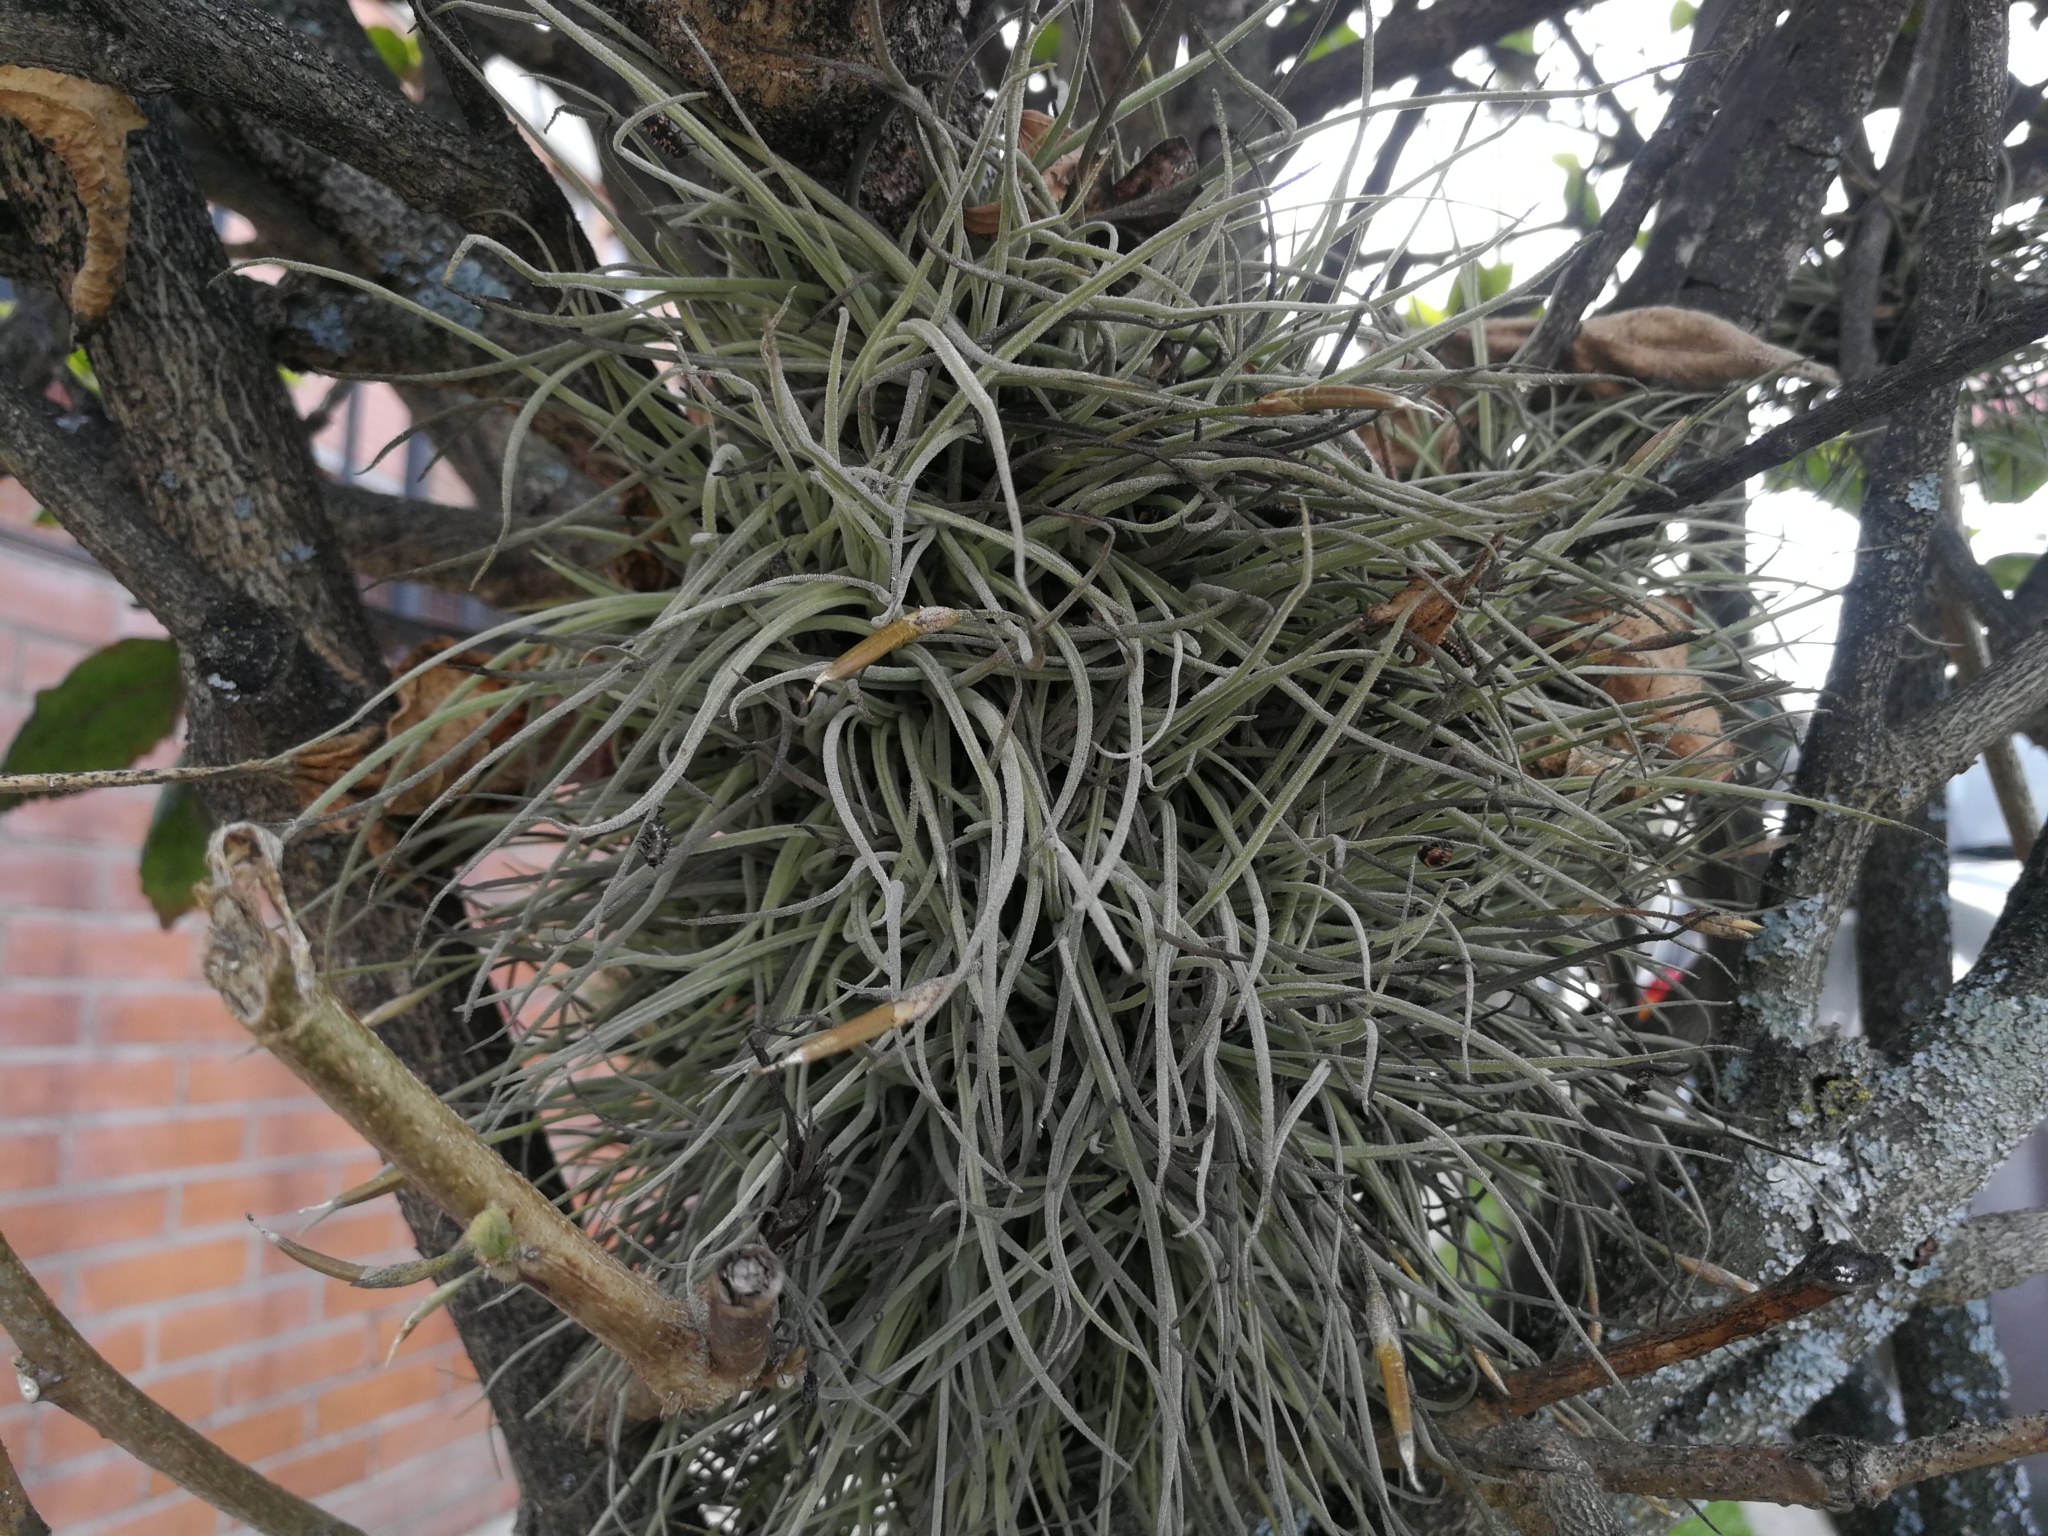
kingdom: Plantae
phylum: Tracheophyta
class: Liliopsida
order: Poales
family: Bromeliaceae
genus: Tillandsia
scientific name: Tillandsia recurvata
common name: Small ballmoss
